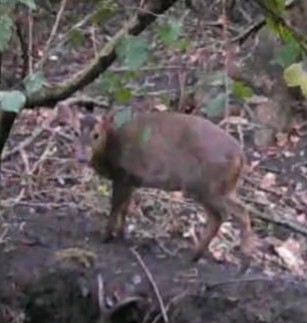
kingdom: Animalia
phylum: Chordata
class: Mammalia
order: Artiodactyla
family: Cervidae
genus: Muntiacus
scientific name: Muntiacus reevesi
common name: Reeves' muntjac
